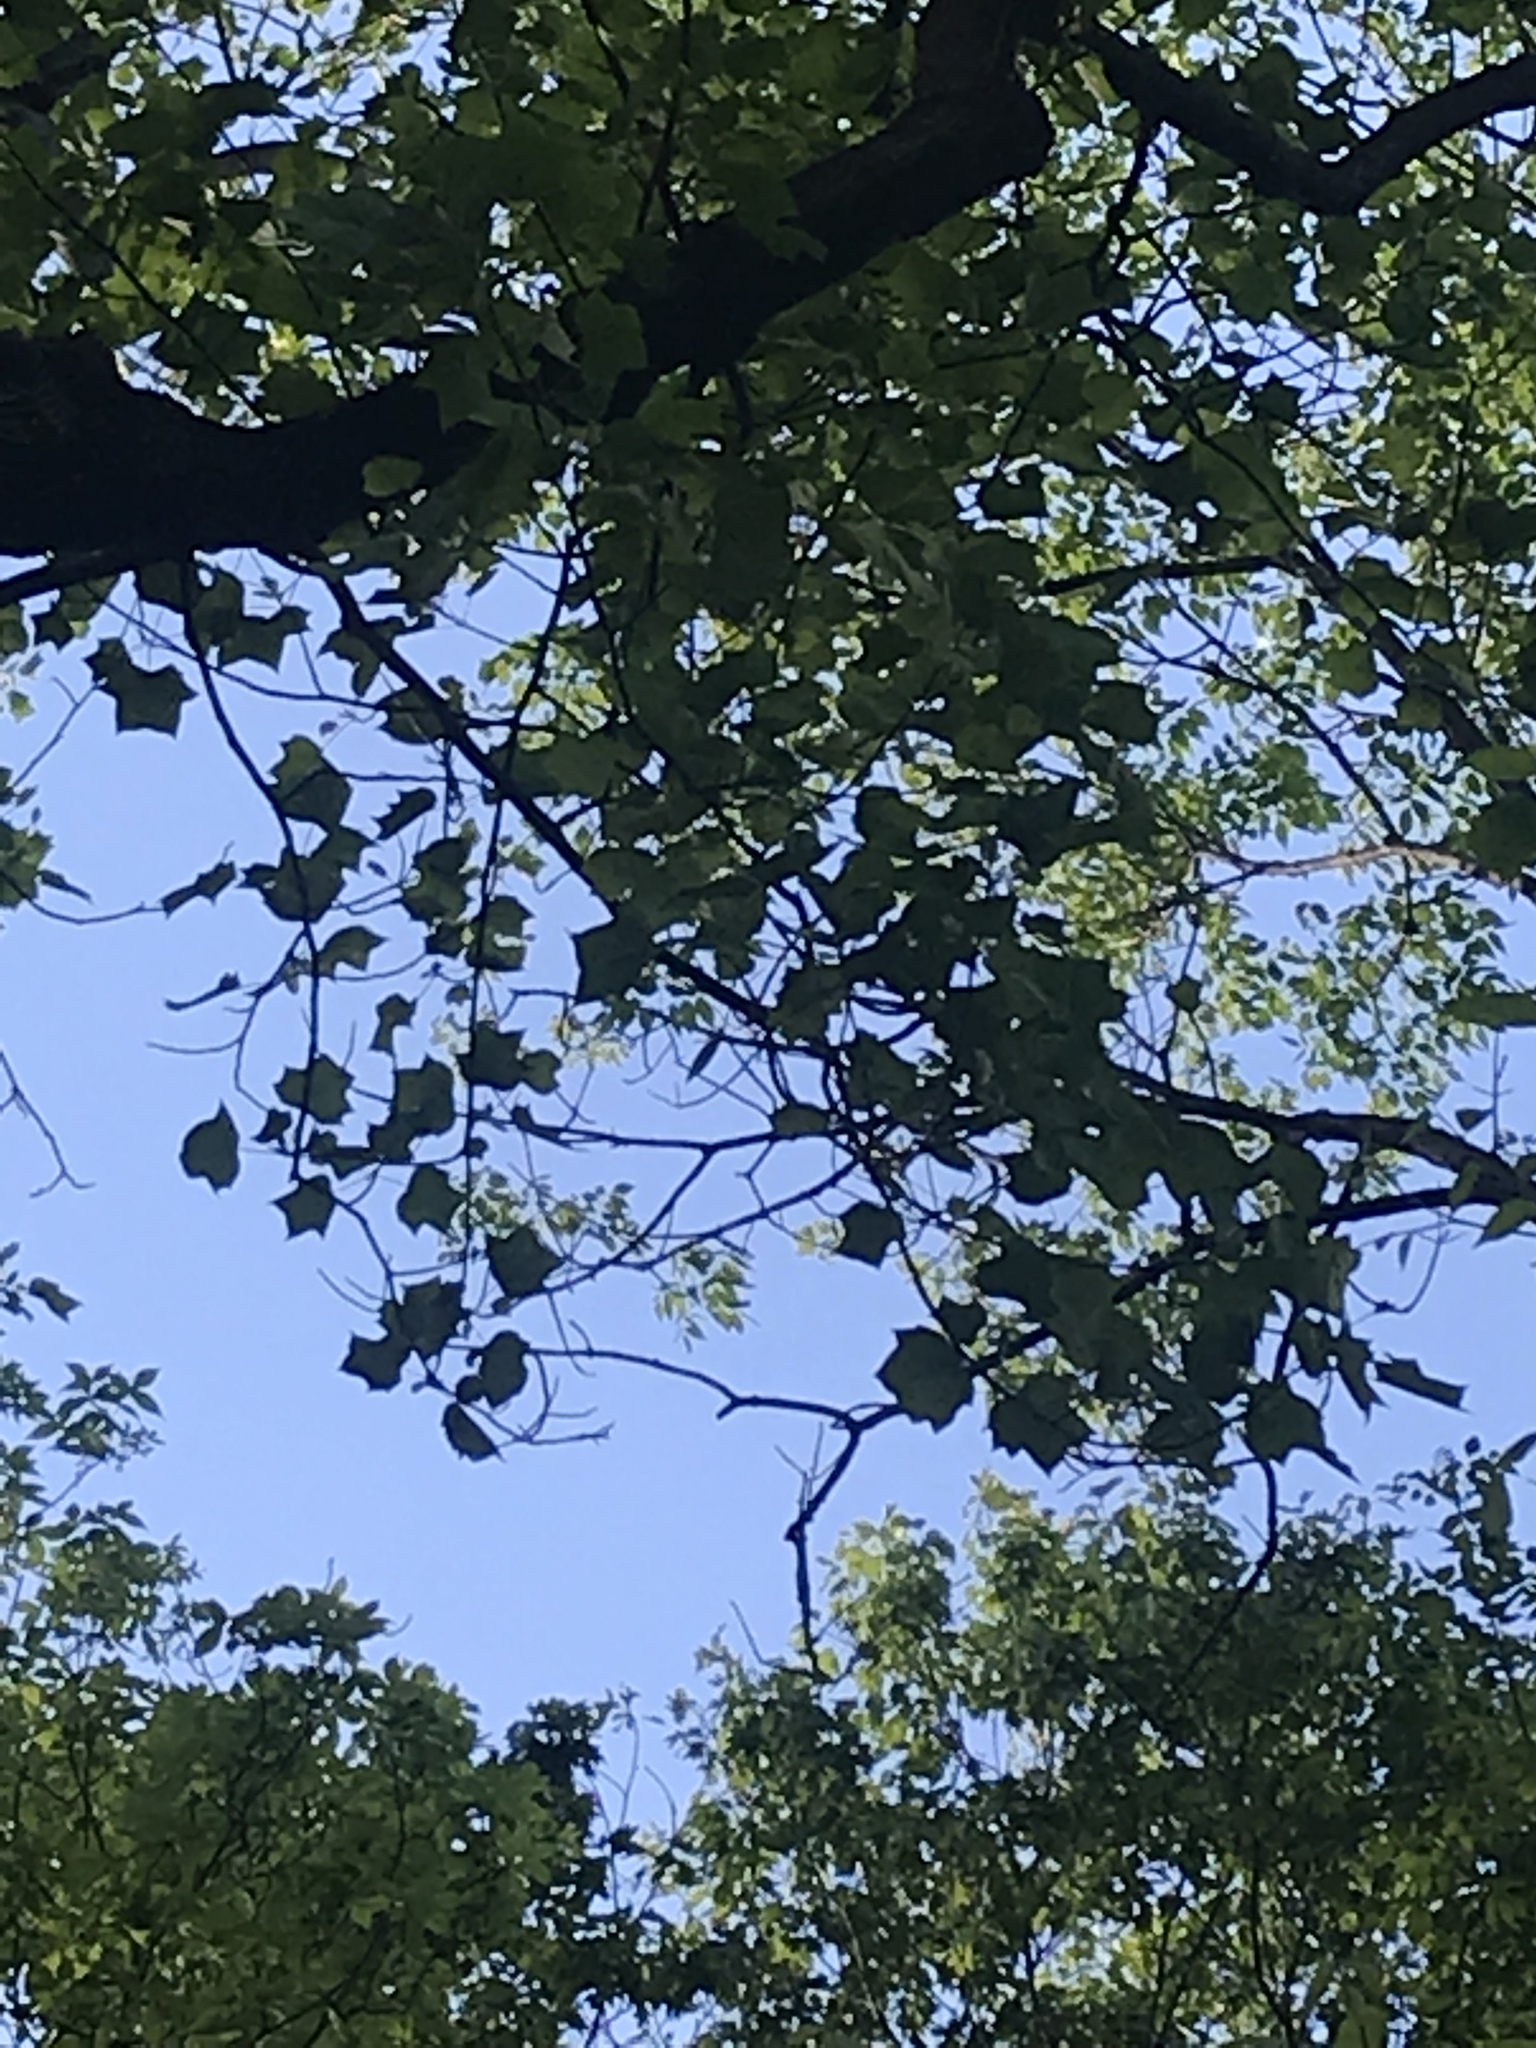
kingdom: Plantae
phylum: Tracheophyta
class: Magnoliopsida
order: Magnoliales
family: Magnoliaceae
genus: Liriodendron
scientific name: Liriodendron tulipifera
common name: Tulip tree
